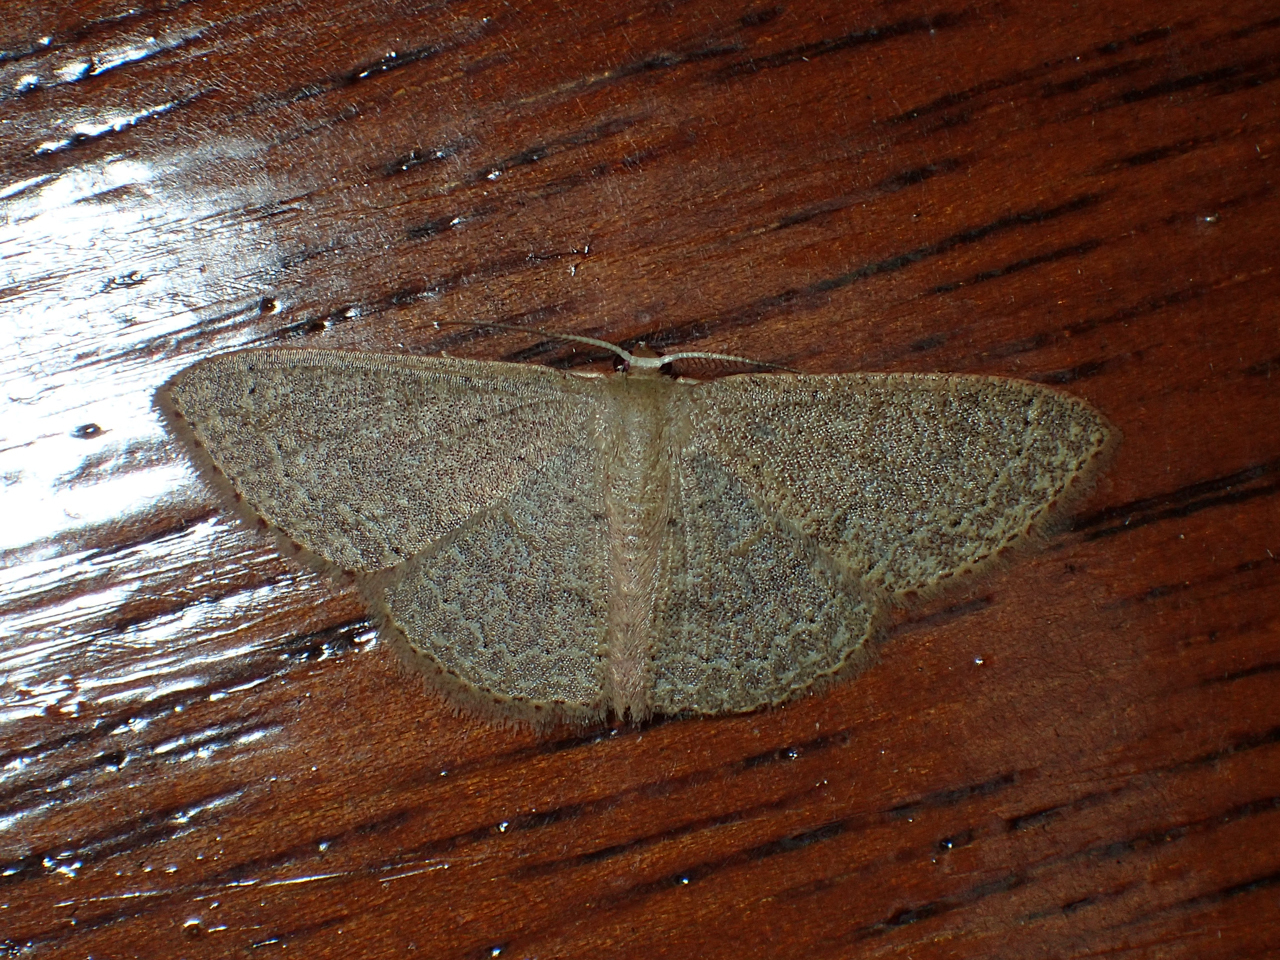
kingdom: Animalia
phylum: Arthropoda
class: Insecta
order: Lepidoptera
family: Geometridae
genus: Pleuroprucha
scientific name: Pleuroprucha insulsaria
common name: Common tan wave
